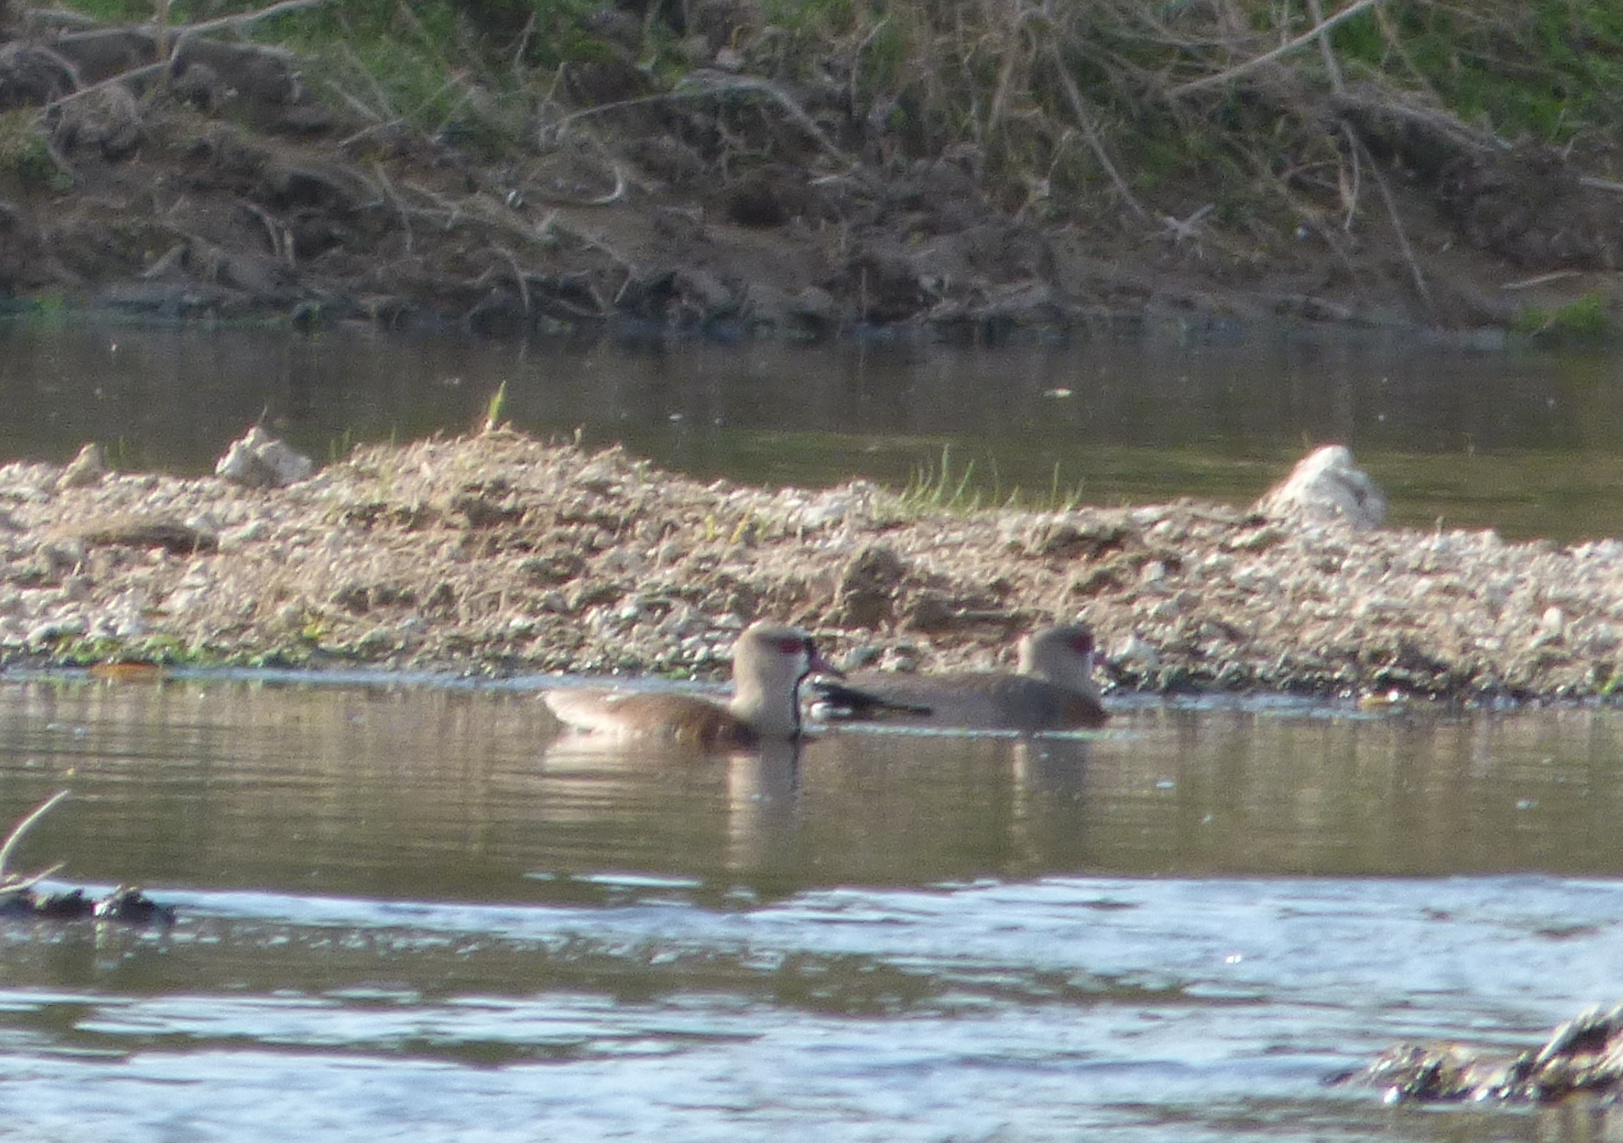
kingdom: Animalia
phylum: Chordata
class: Aves
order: Charadriiformes
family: Charadriidae
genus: Vanellus
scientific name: Vanellus chilensis
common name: Southern lapwing
